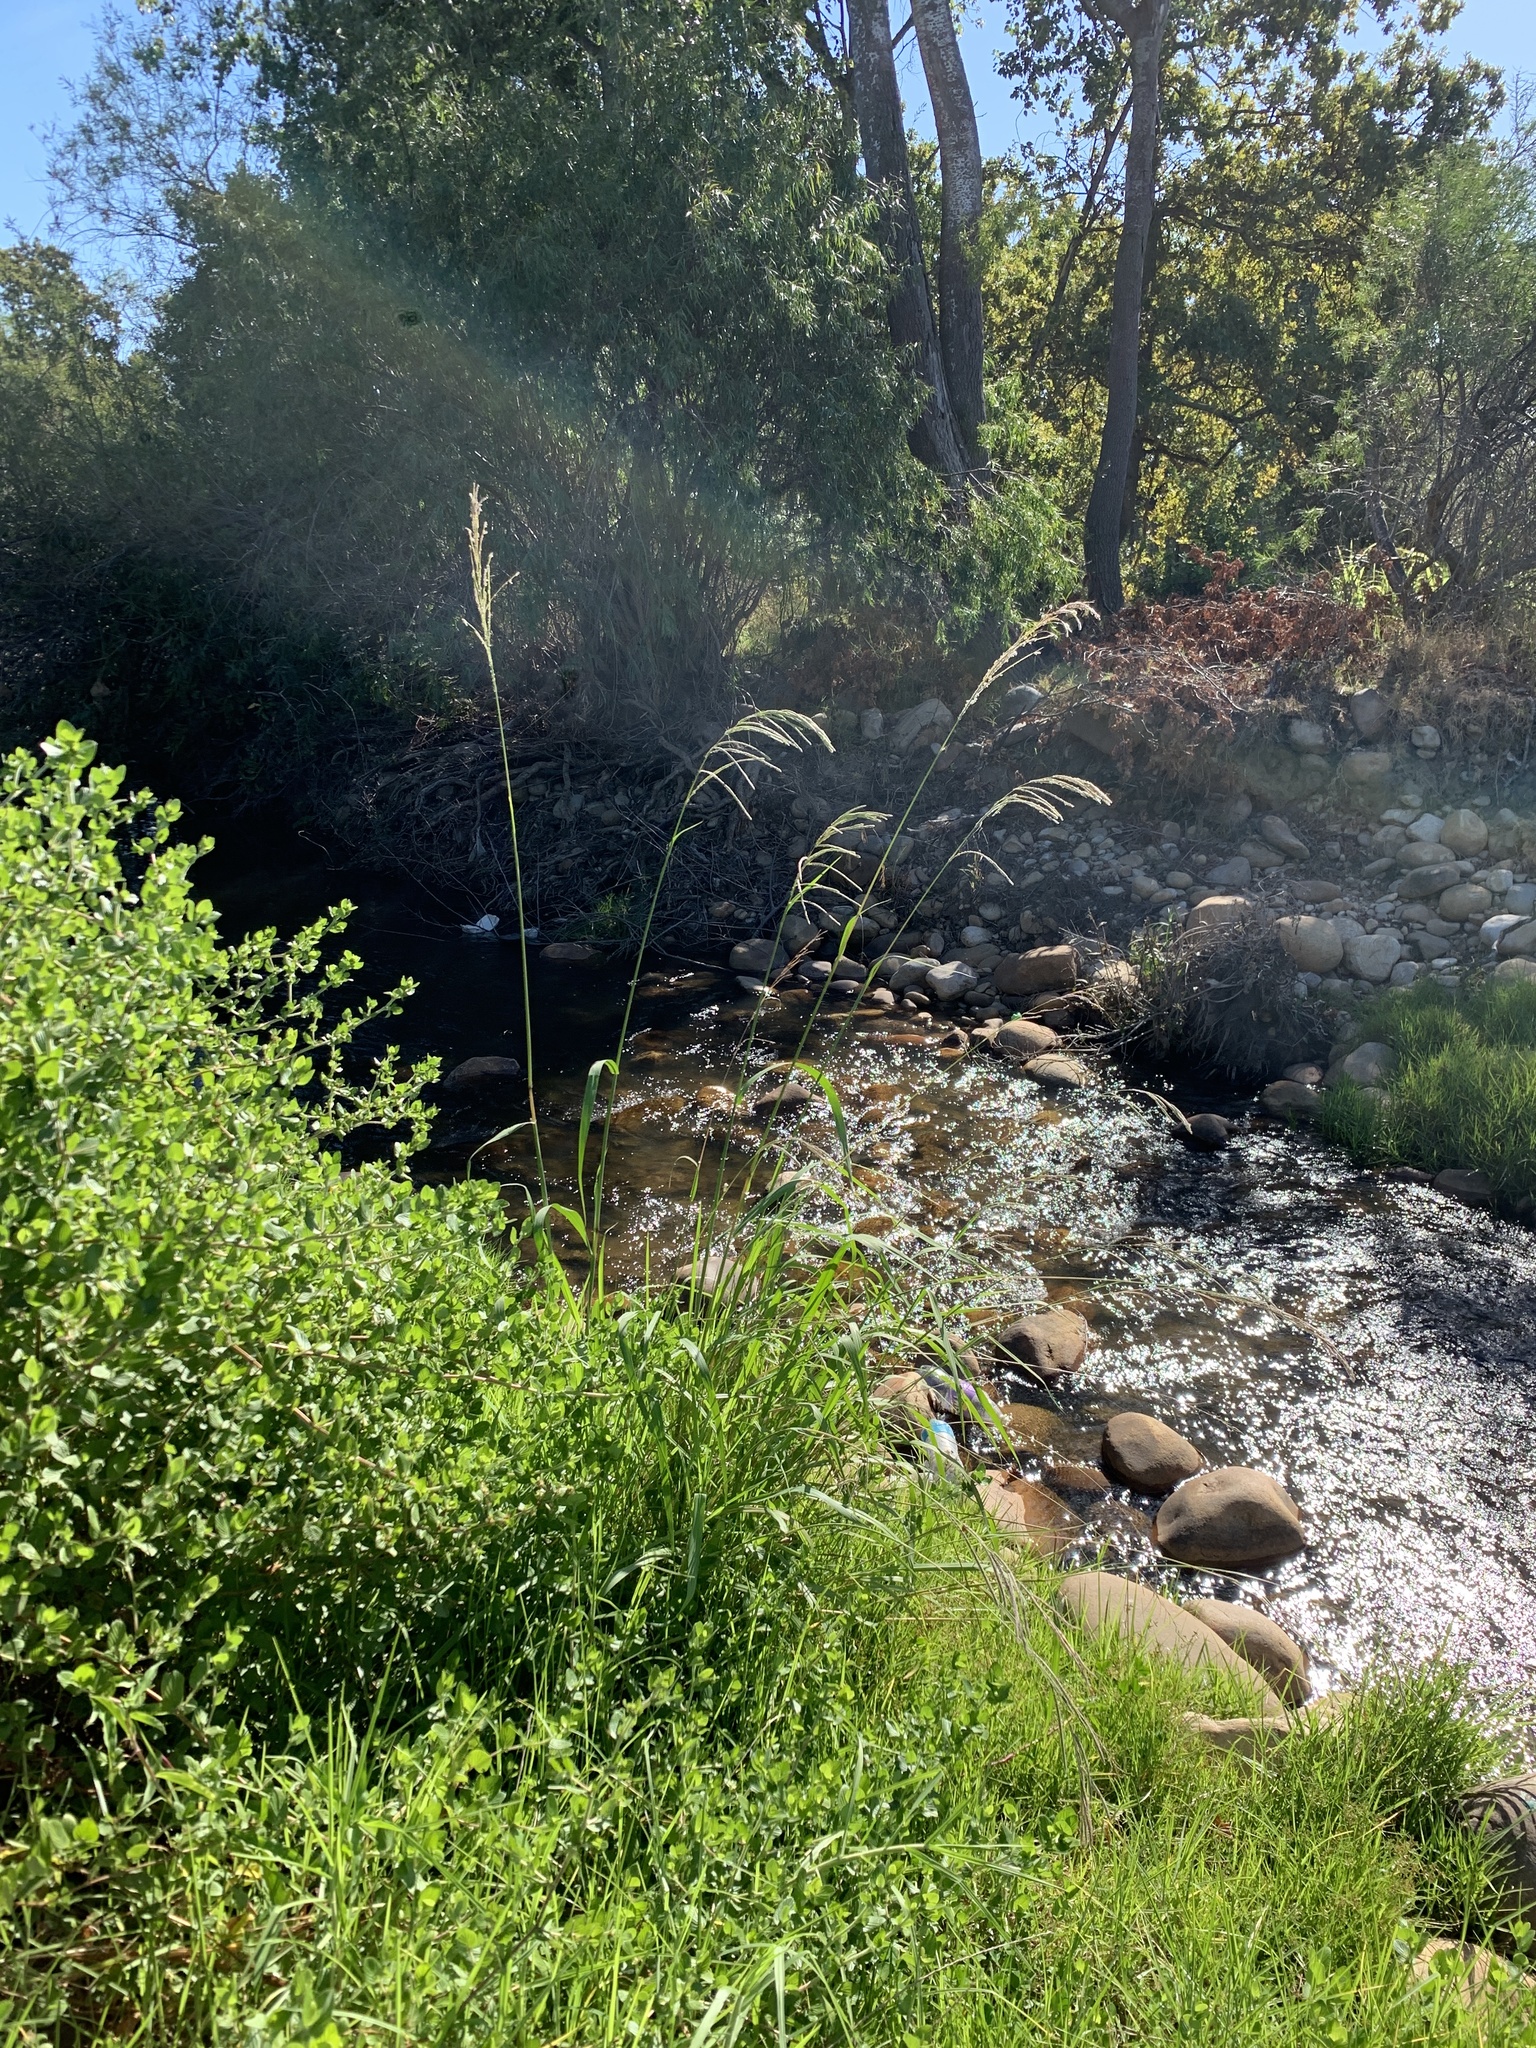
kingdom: Plantae
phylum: Tracheophyta
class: Liliopsida
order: Poales
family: Poaceae
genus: Paspalum
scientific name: Paspalum urvillei
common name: Vasey's grass
